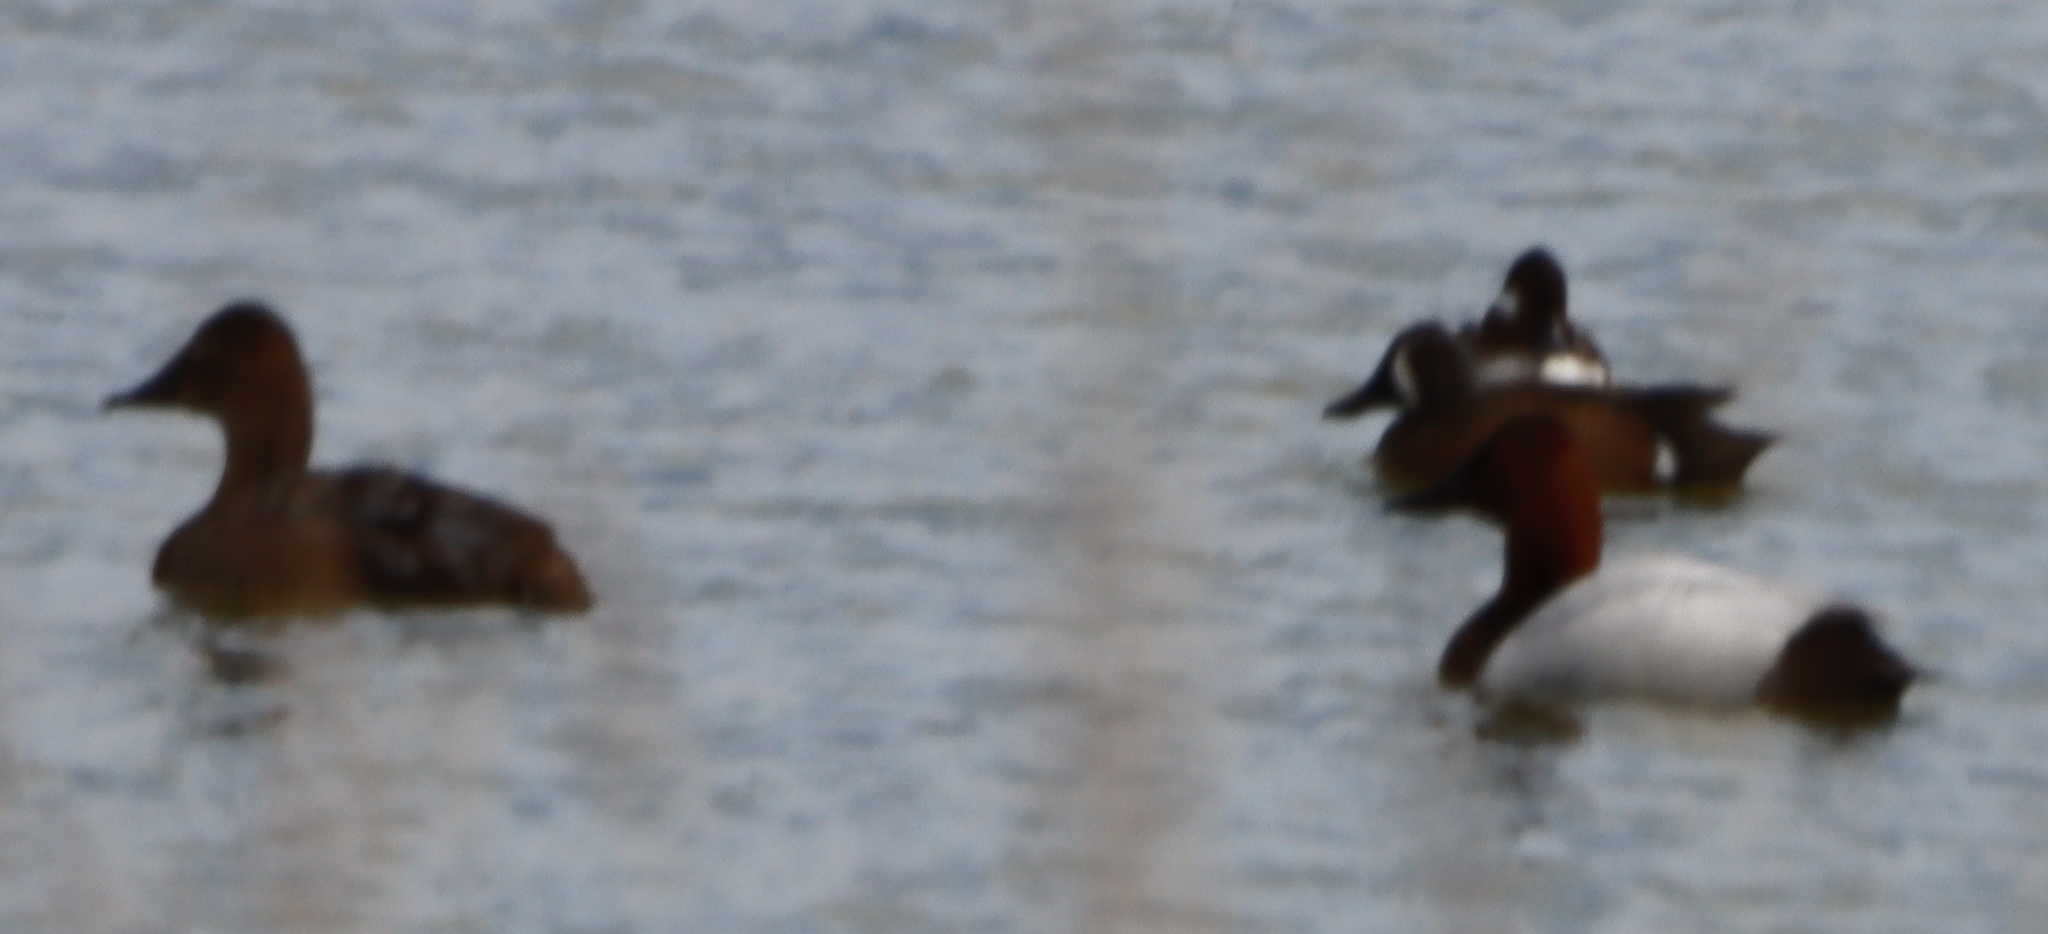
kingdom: Animalia
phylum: Chordata
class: Aves
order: Anseriformes
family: Anatidae
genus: Aythya
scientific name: Aythya valisineria
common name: Canvasback
